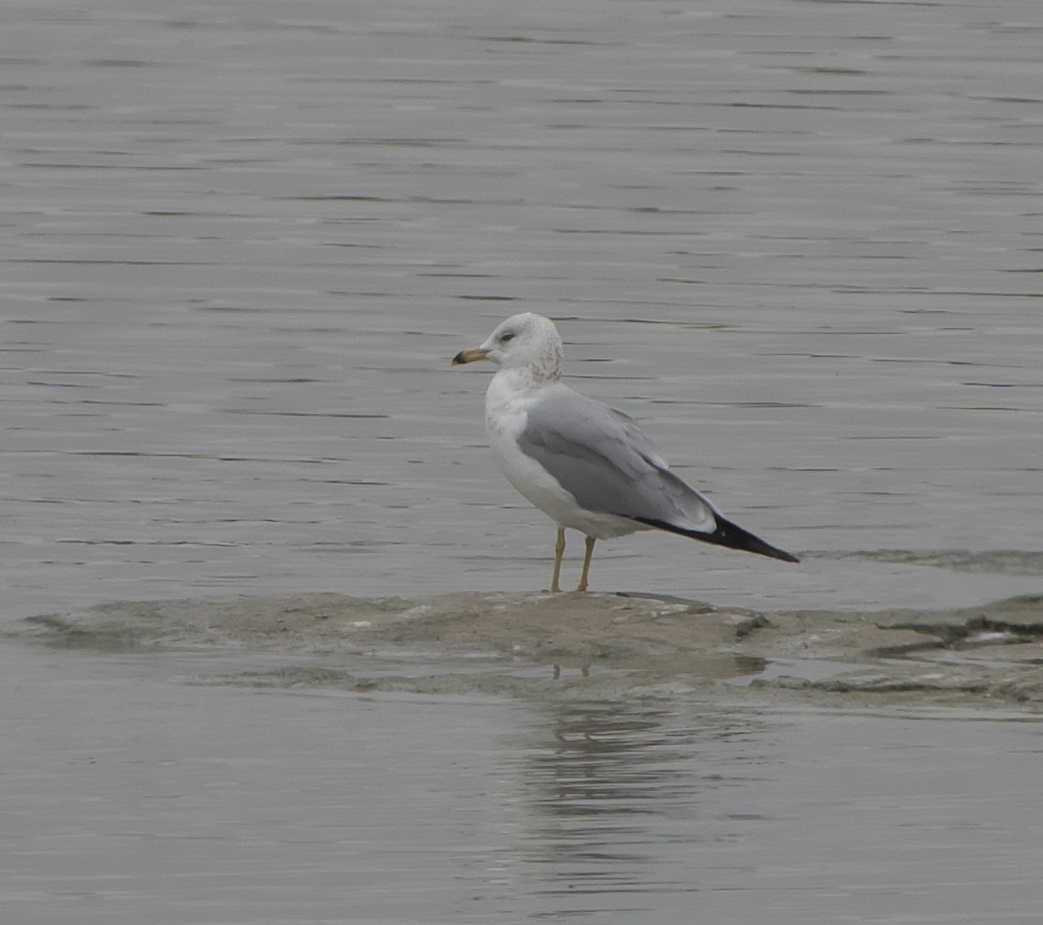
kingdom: Animalia
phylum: Chordata
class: Aves
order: Charadriiformes
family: Laridae
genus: Larus
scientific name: Larus delawarensis
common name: Ring-billed gull
